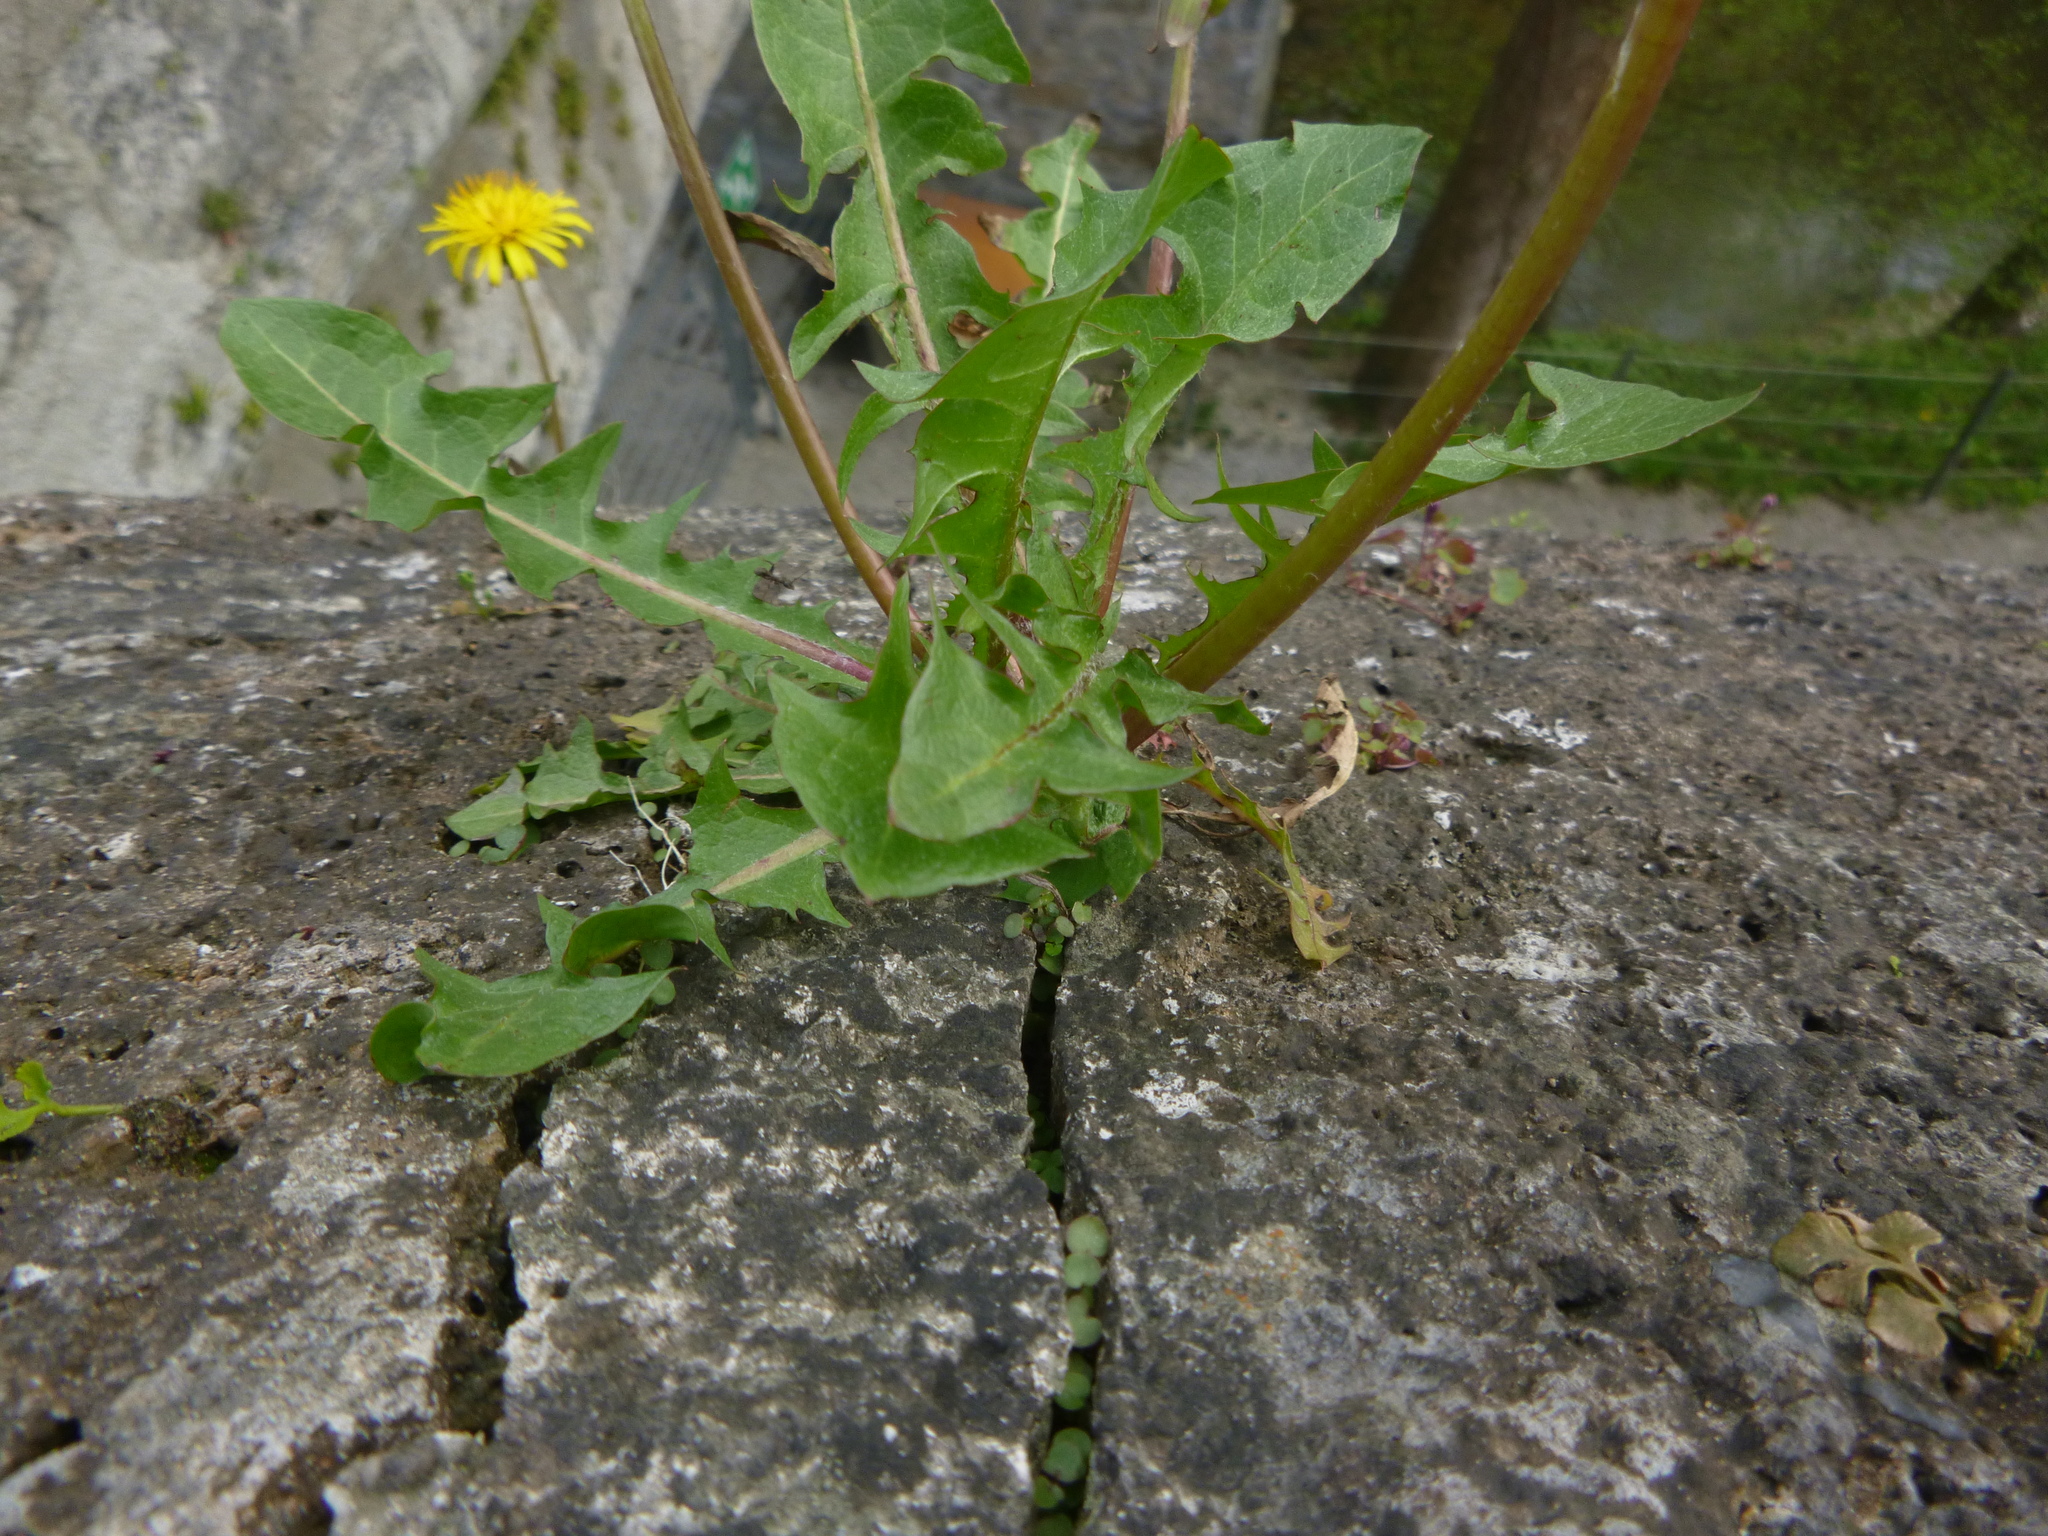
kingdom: Plantae
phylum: Tracheophyta
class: Magnoliopsida
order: Asterales
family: Asteraceae
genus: Taraxacum
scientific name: Taraxacum
